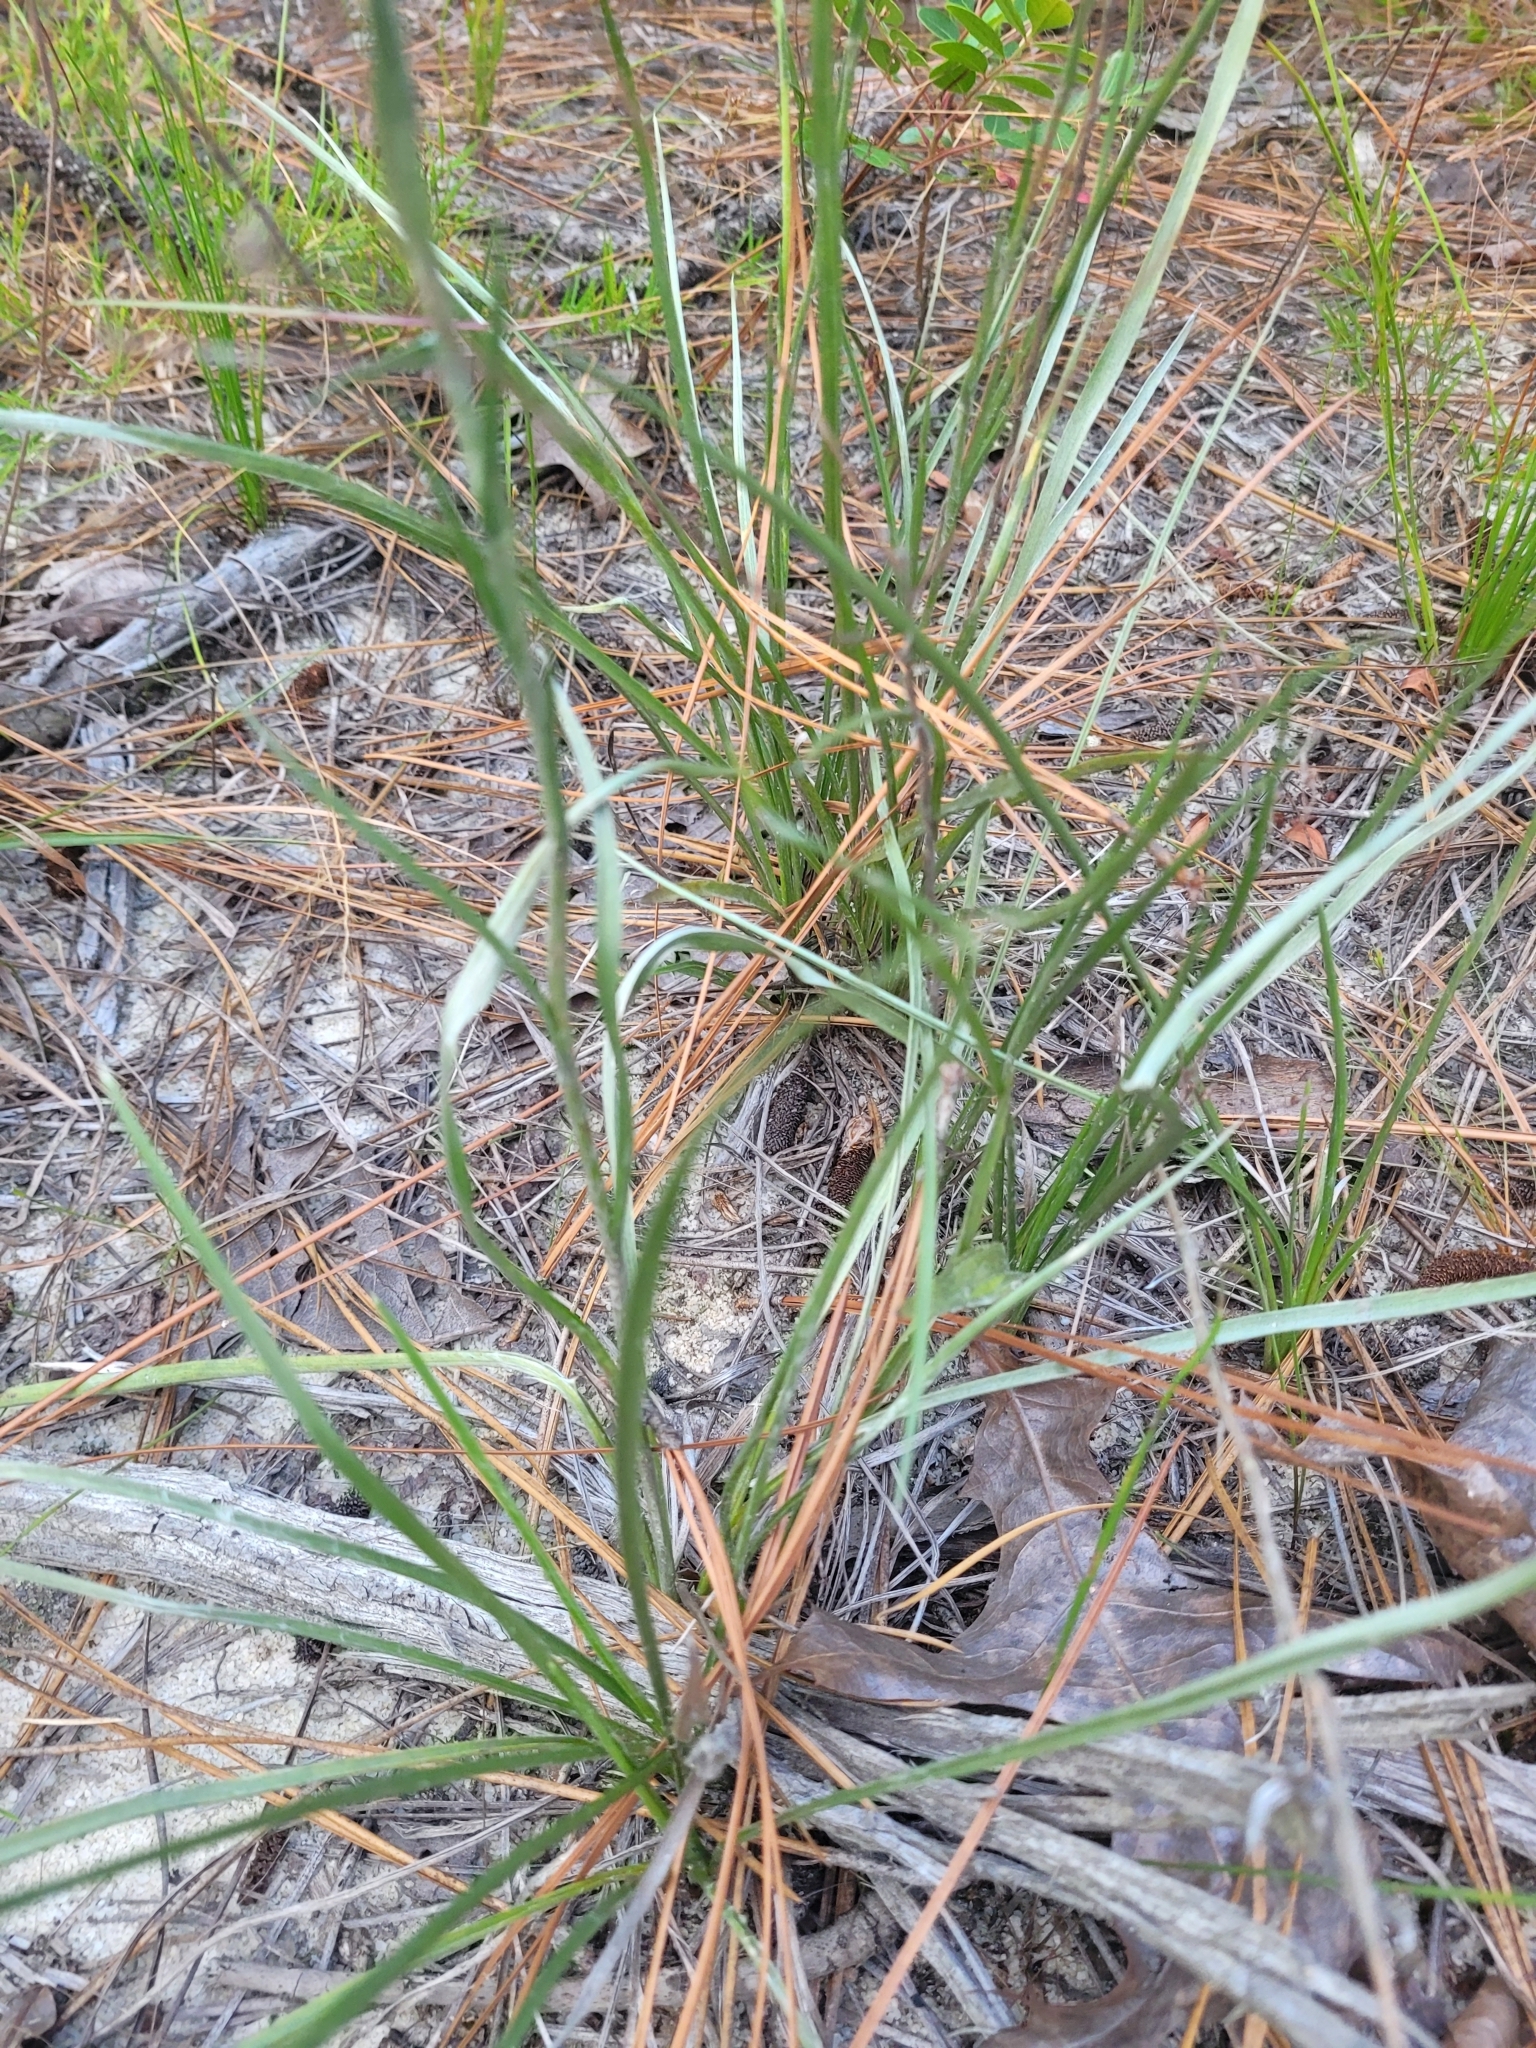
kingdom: Plantae
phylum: Tracheophyta
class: Magnoliopsida
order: Asterales
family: Asteraceae
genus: Pityopsis
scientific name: Pityopsis aspera
